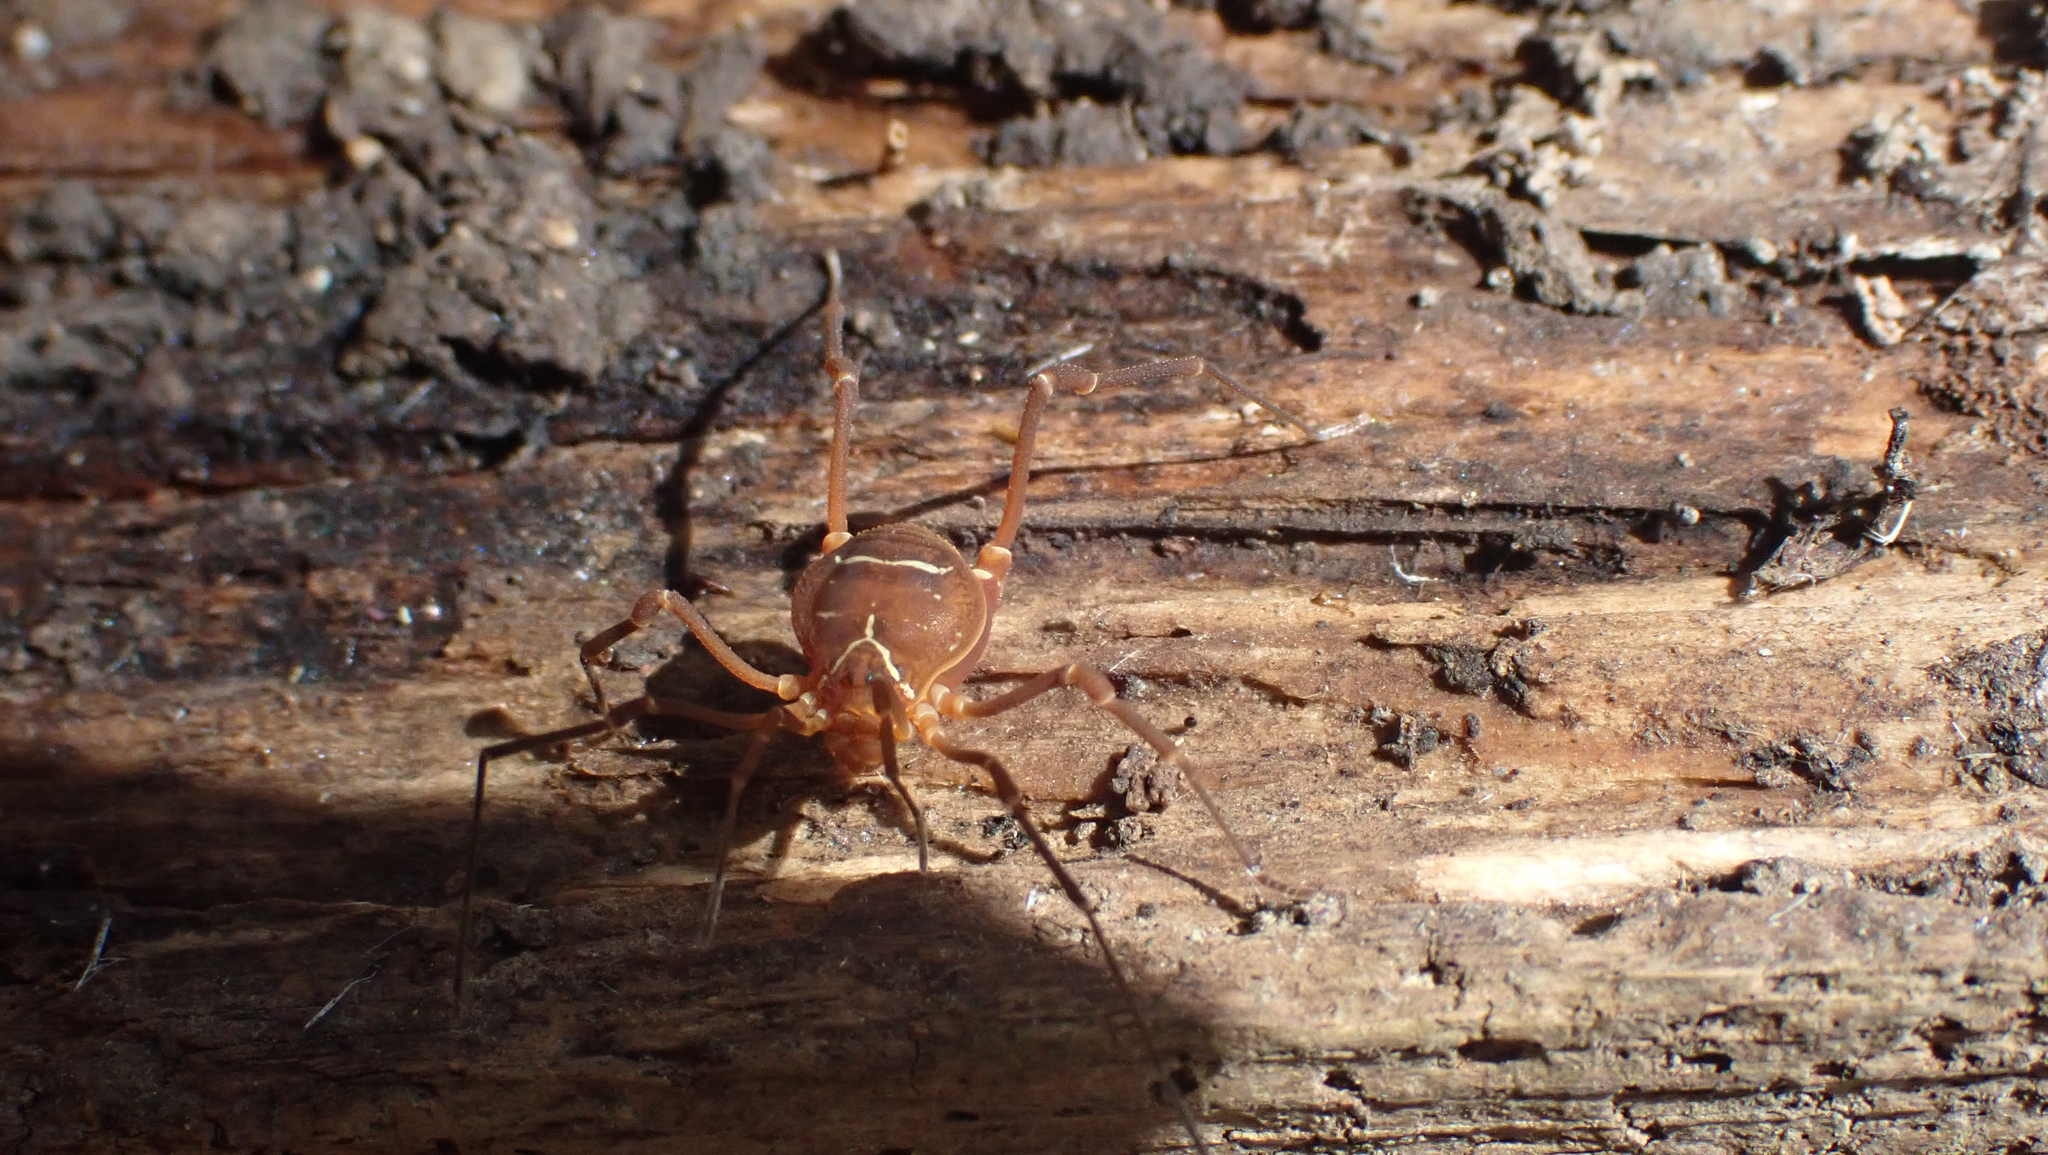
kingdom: Animalia
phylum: Arthropoda
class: Arachnida
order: Opiliones
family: Cosmetidae
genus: Libitioides
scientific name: Libitioides sayi
